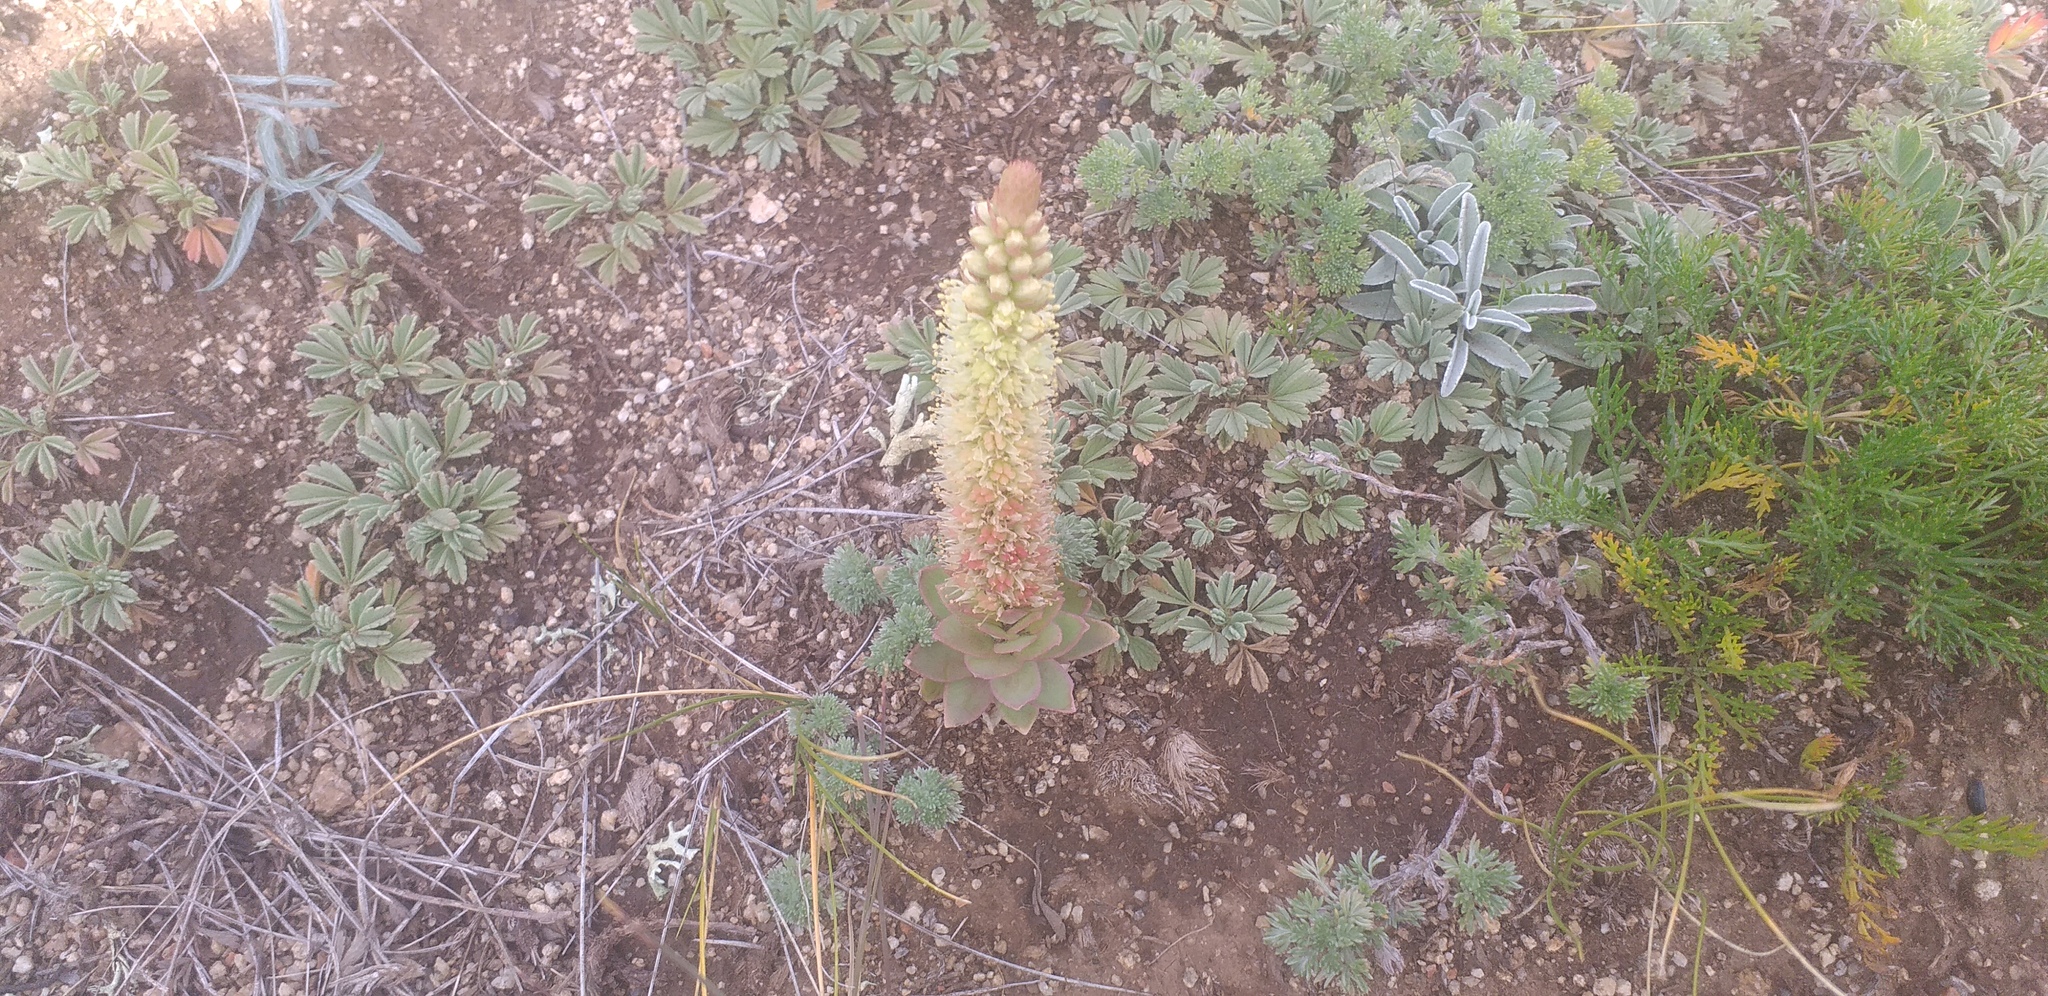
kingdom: Plantae
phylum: Tracheophyta
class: Magnoliopsida
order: Saxifragales
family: Crassulaceae
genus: Orostachys
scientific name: Orostachys malacophylla
